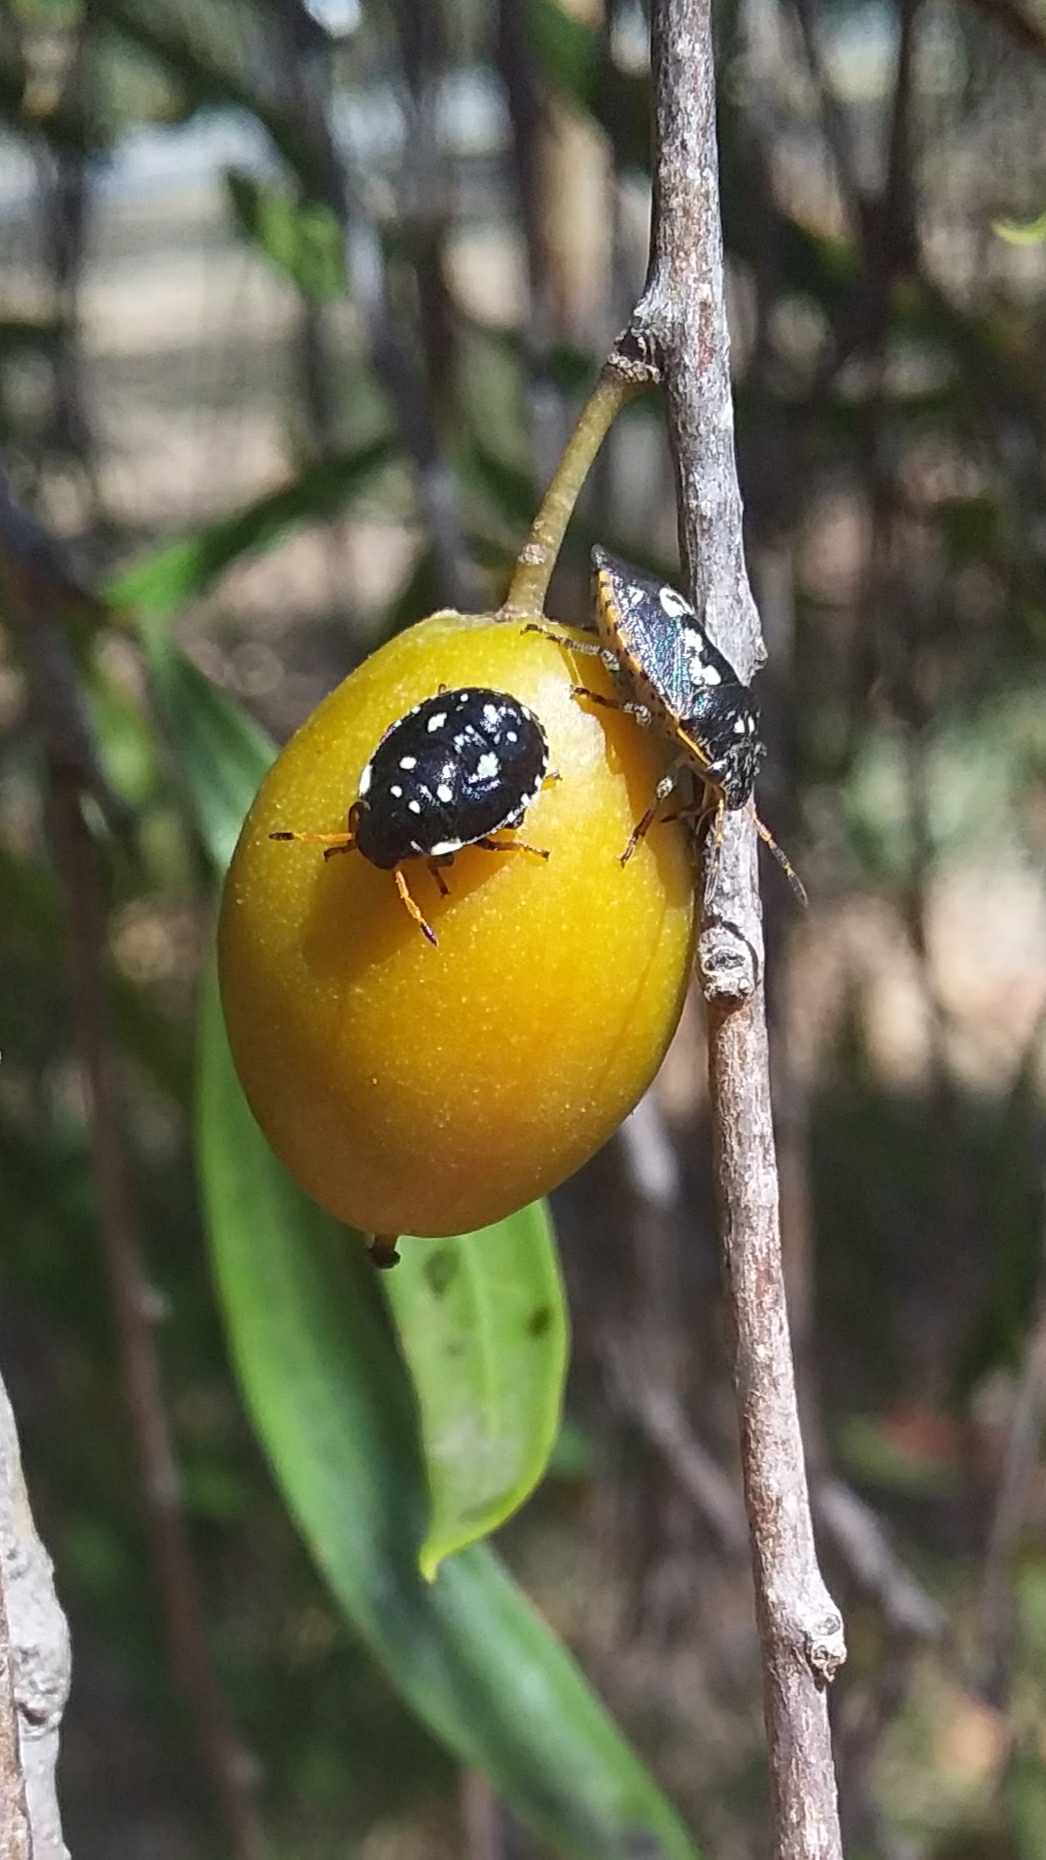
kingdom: Animalia
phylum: Arthropoda
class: Insecta
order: Hemiptera
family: Pentatomidae
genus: Pseudapines
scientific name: Pseudapines
